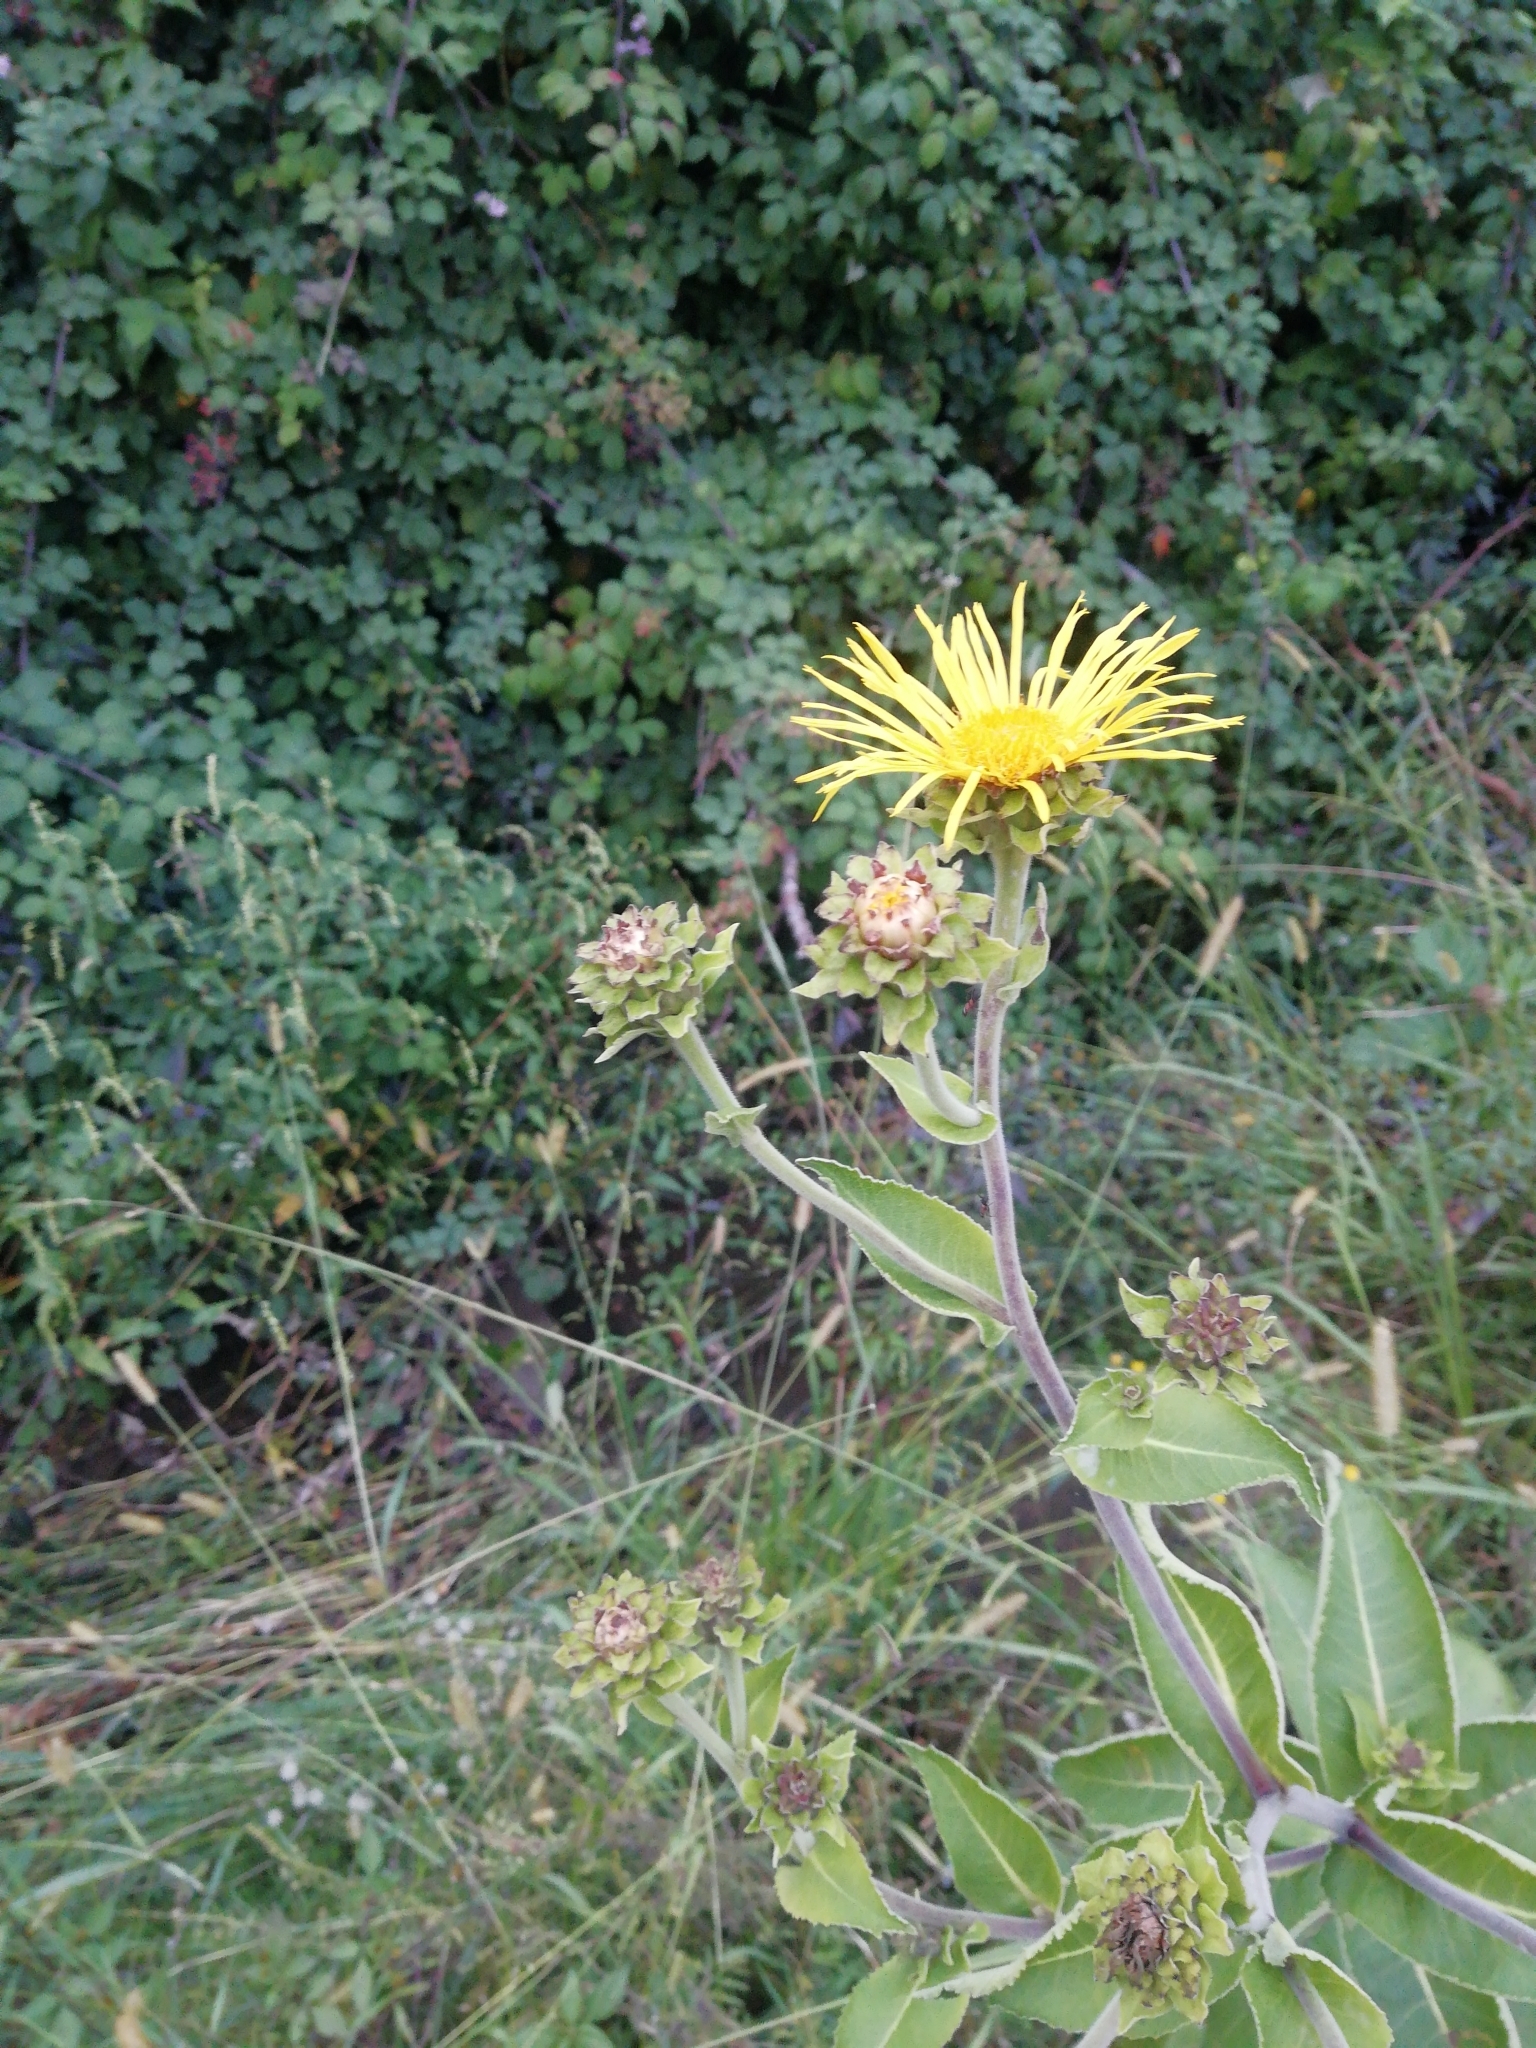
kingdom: Plantae
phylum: Tracheophyta
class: Magnoliopsida
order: Asterales
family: Asteraceae
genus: Inula
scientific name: Inula helenium
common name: Elecampane
